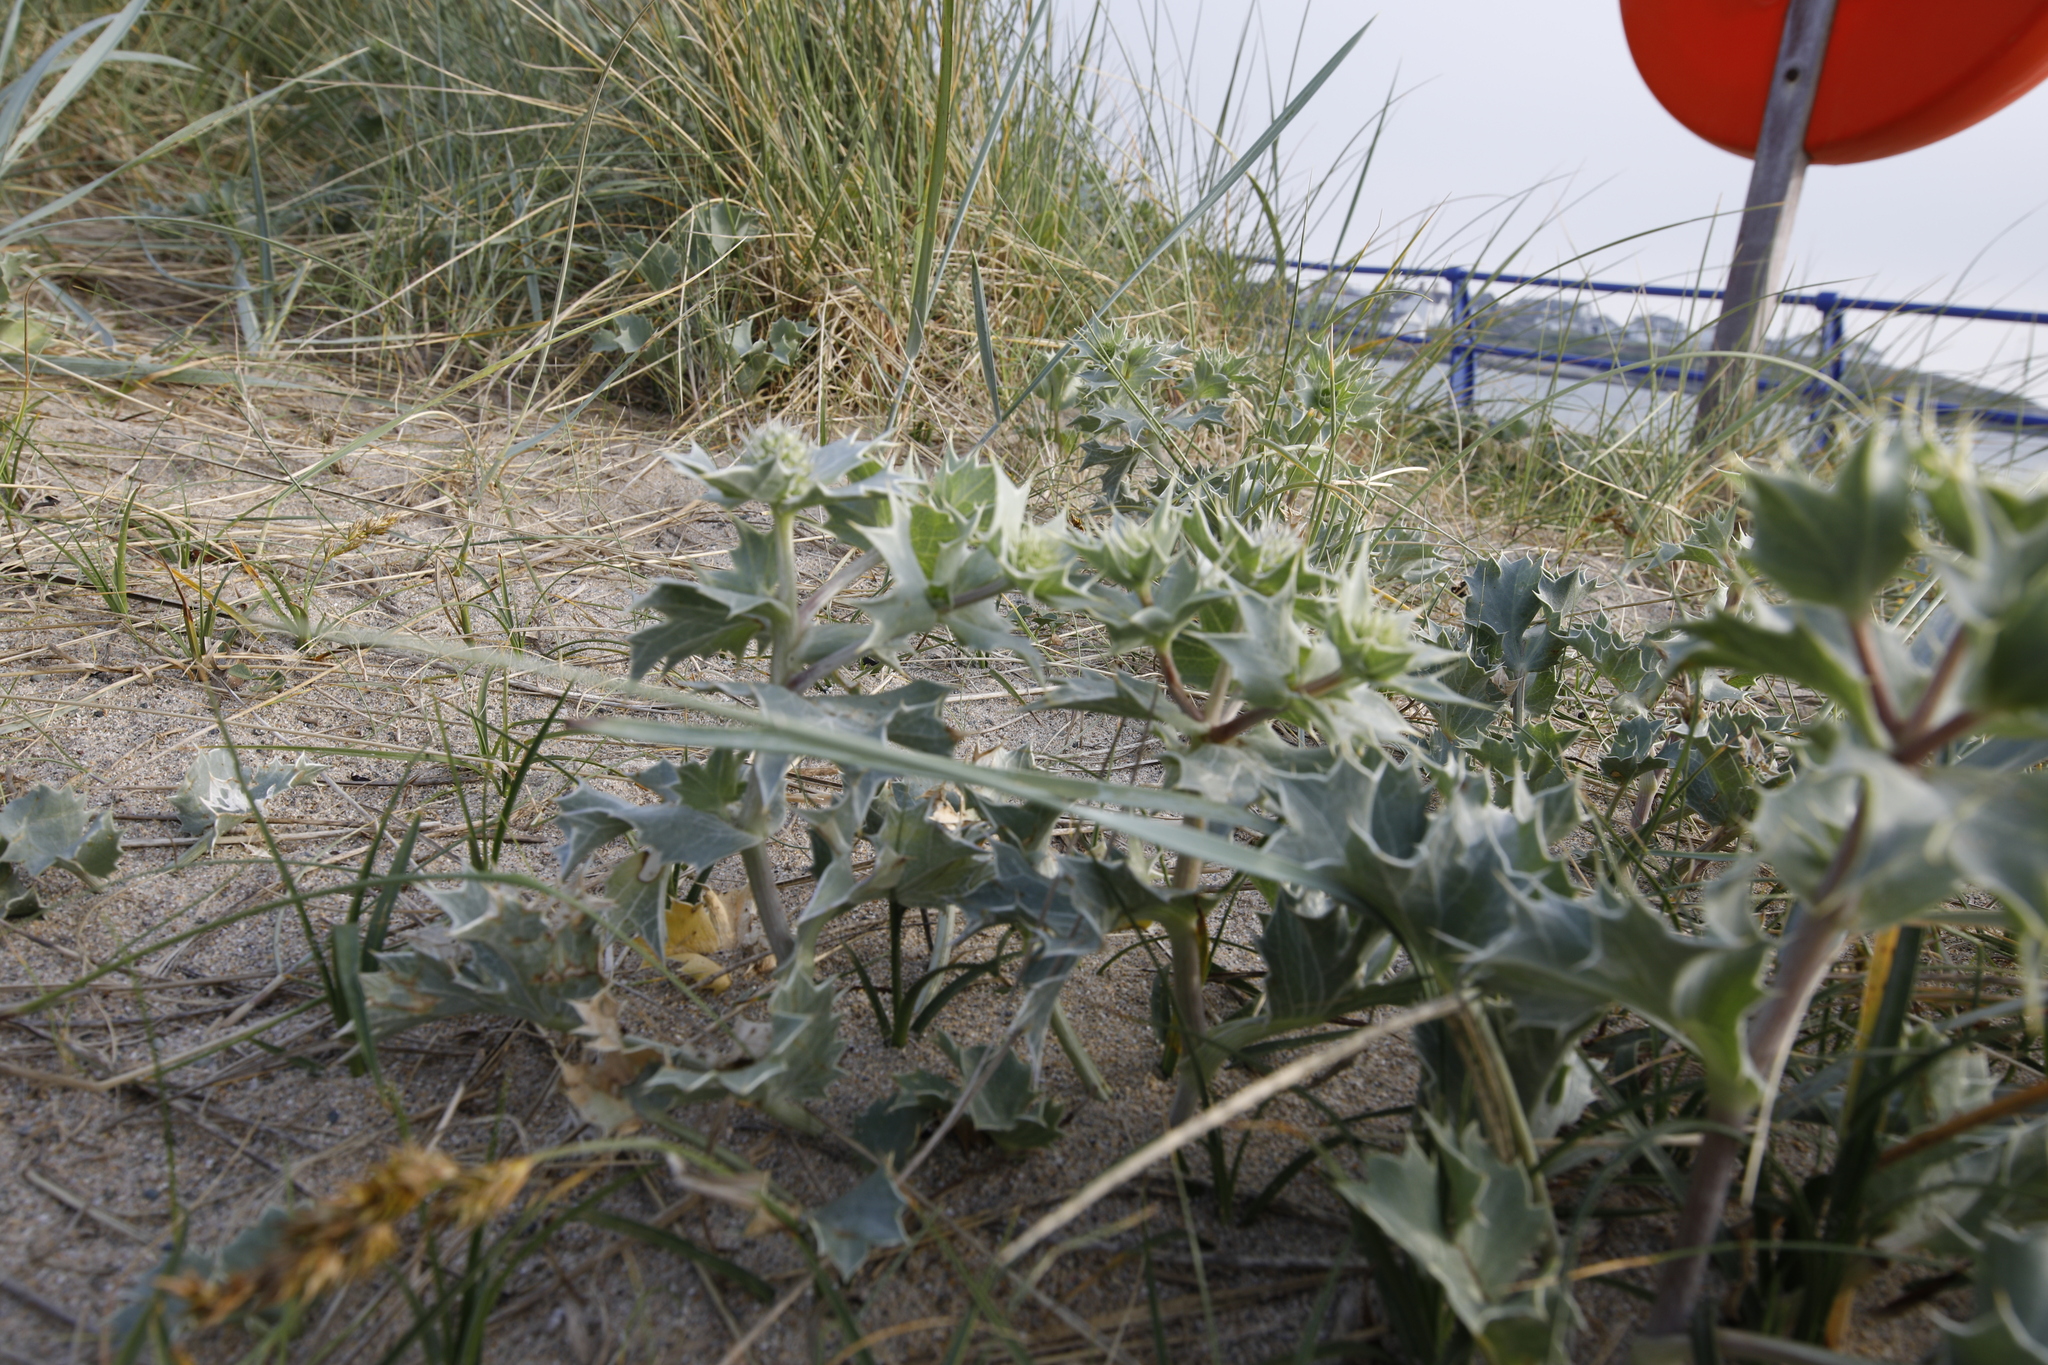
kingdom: Plantae
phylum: Tracheophyta
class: Magnoliopsida
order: Apiales
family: Apiaceae
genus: Eryngium
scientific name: Eryngium maritimum
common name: Sea-holly
